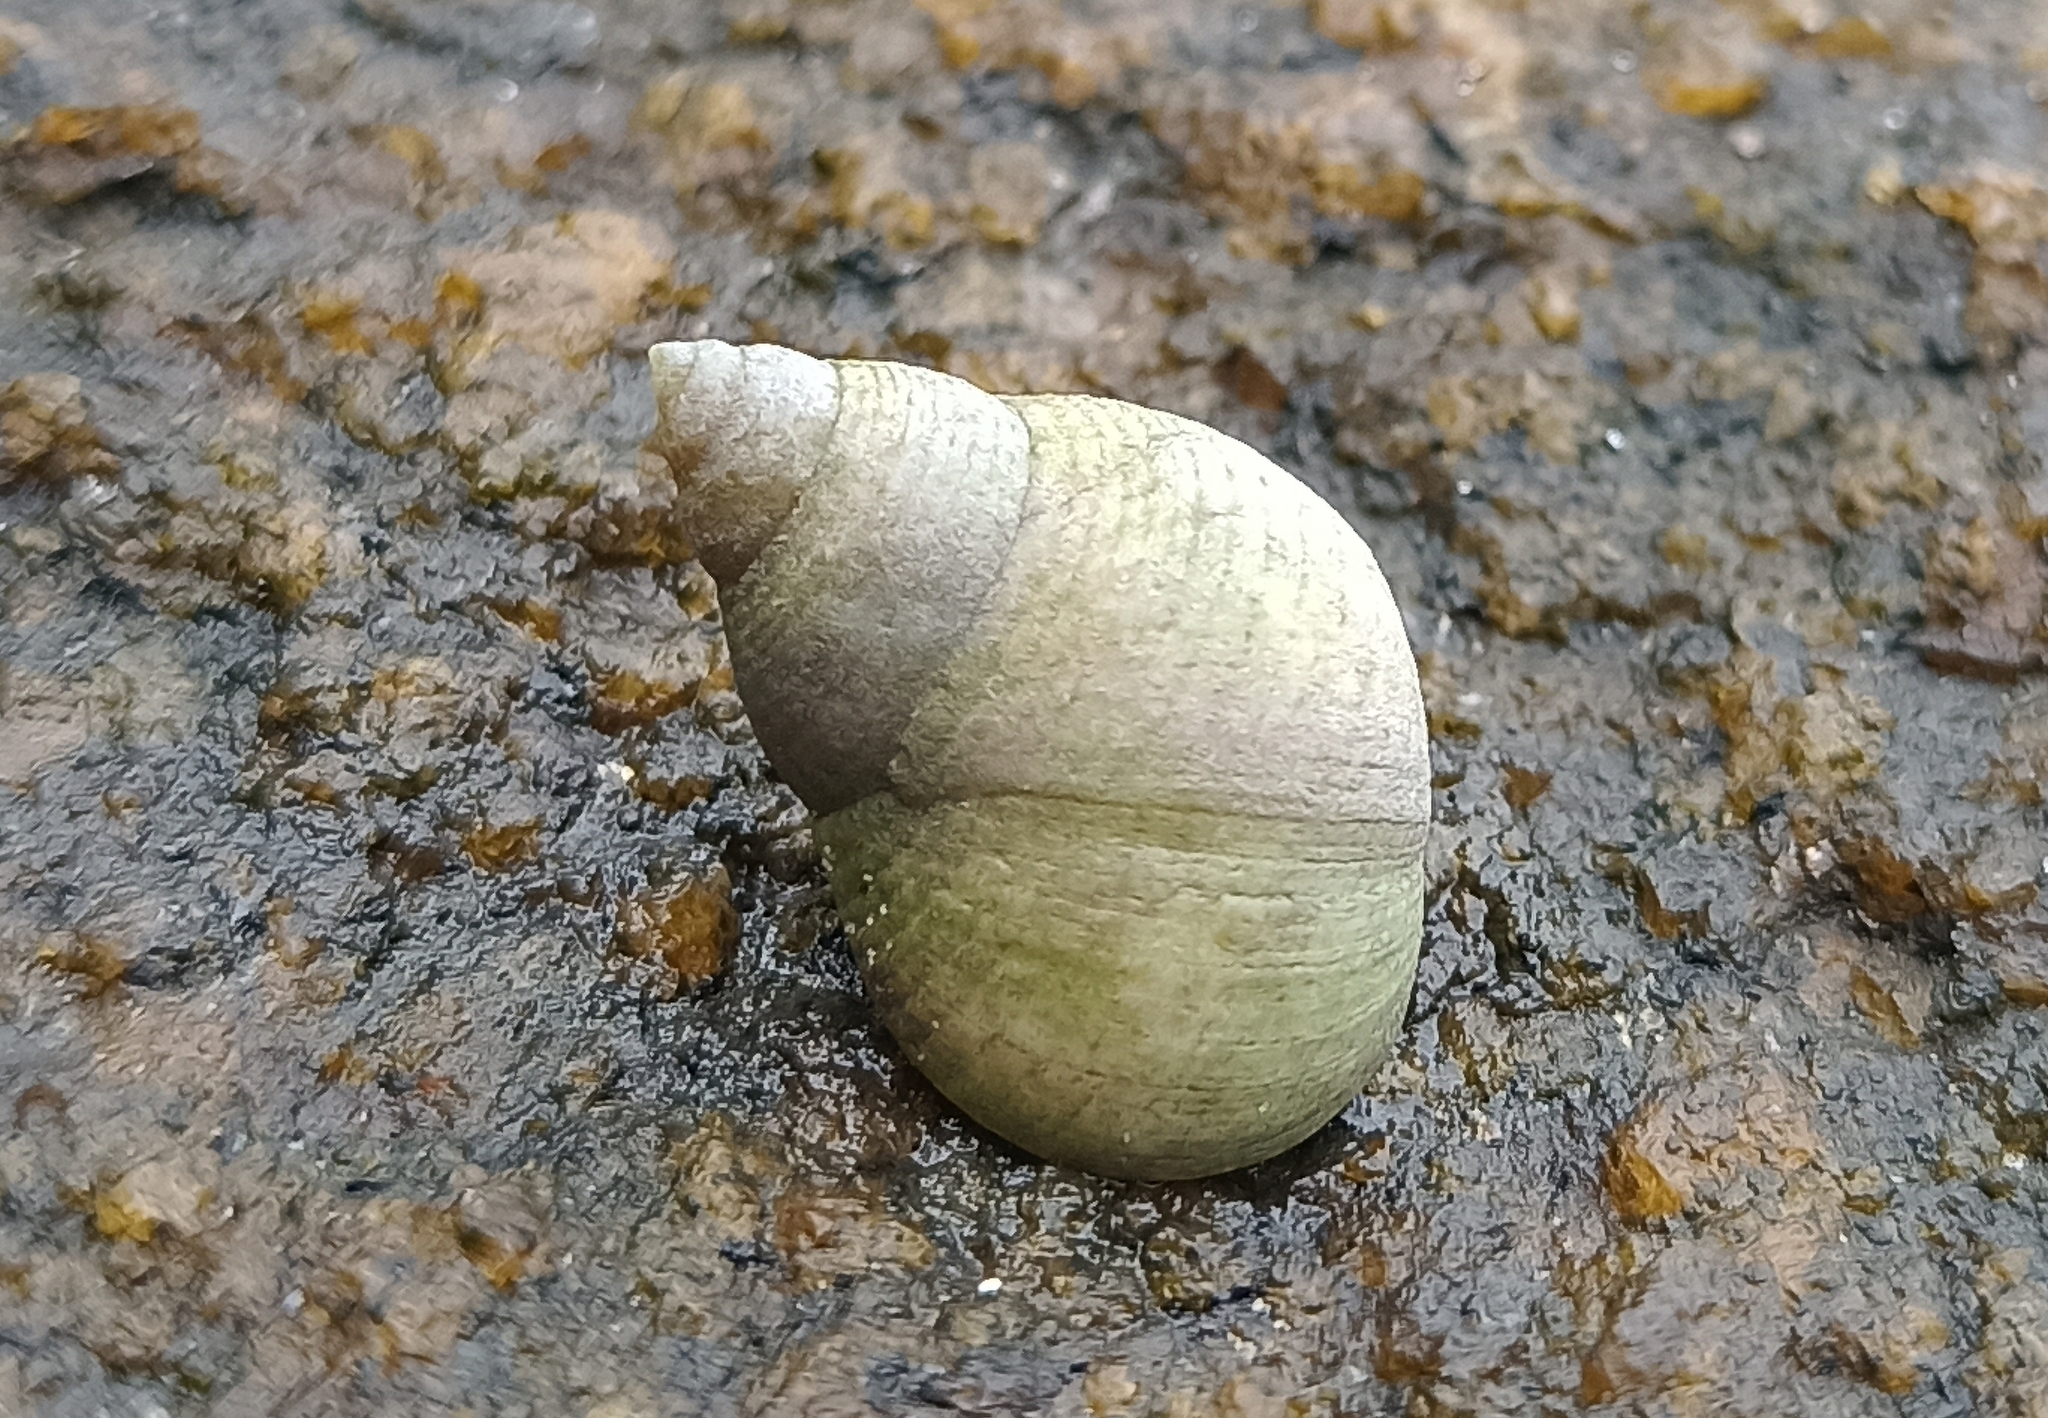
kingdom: Animalia
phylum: Mollusca
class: Gastropoda
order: Littorinimorpha
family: Littorinidae
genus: Littoraria
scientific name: Littoraria flava
